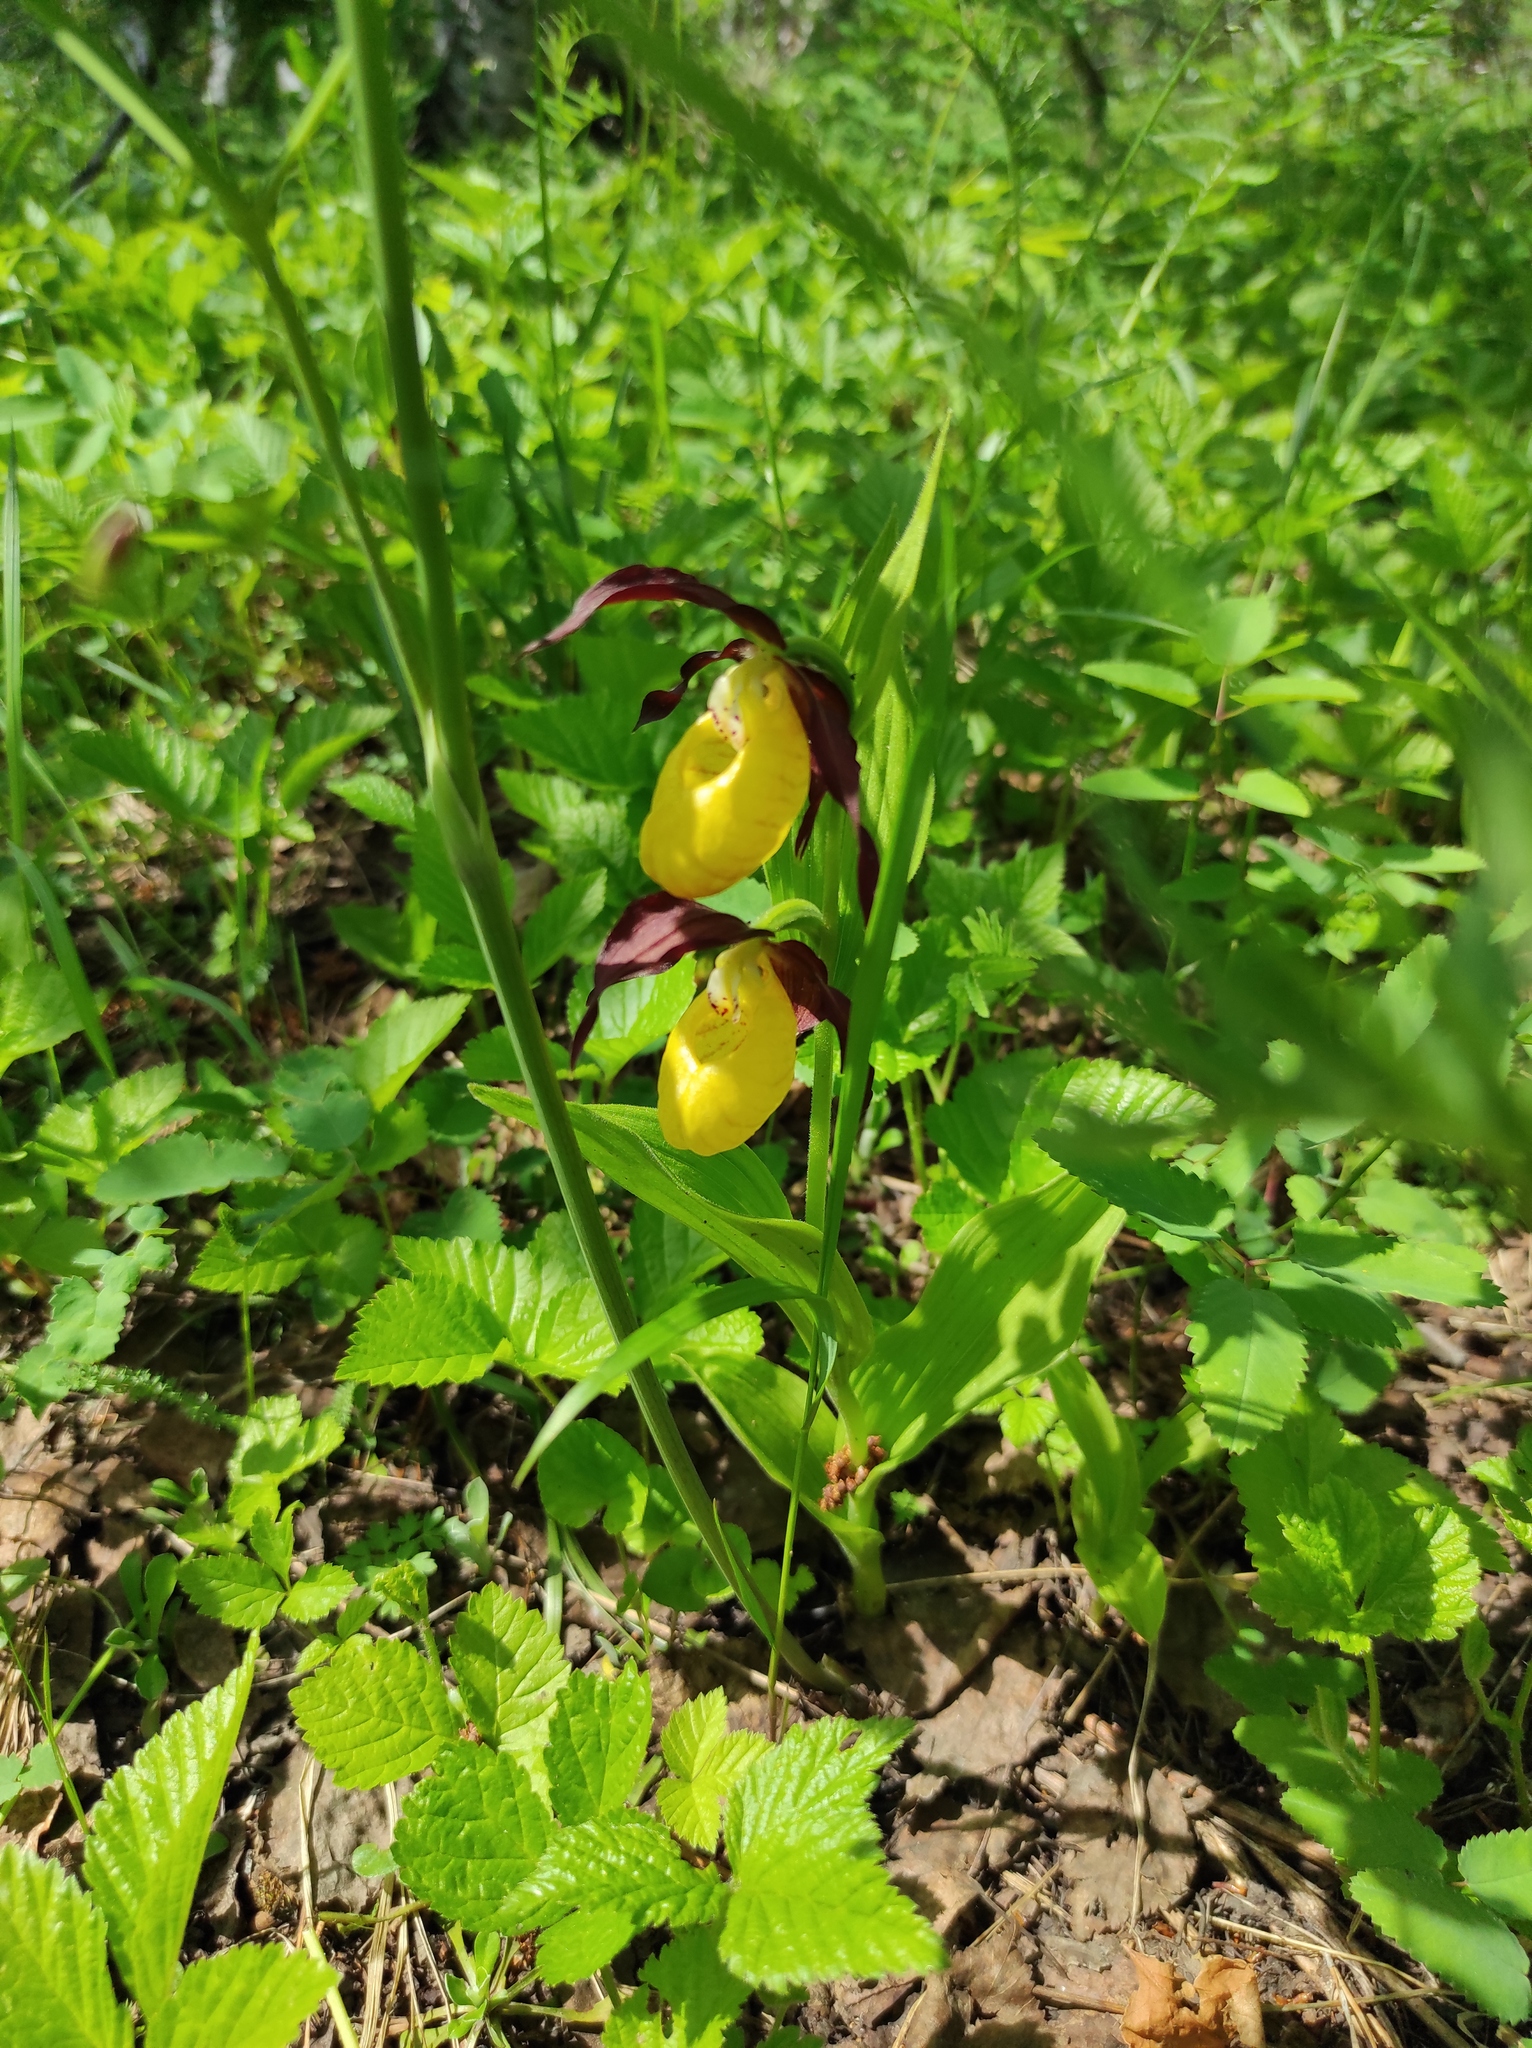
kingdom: Plantae
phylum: Tracheophyta
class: Liliopsida
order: Asparagales
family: Orchidaceae
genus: Cypripedium
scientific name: Cypripedium calceolus
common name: Lady's-slipper
